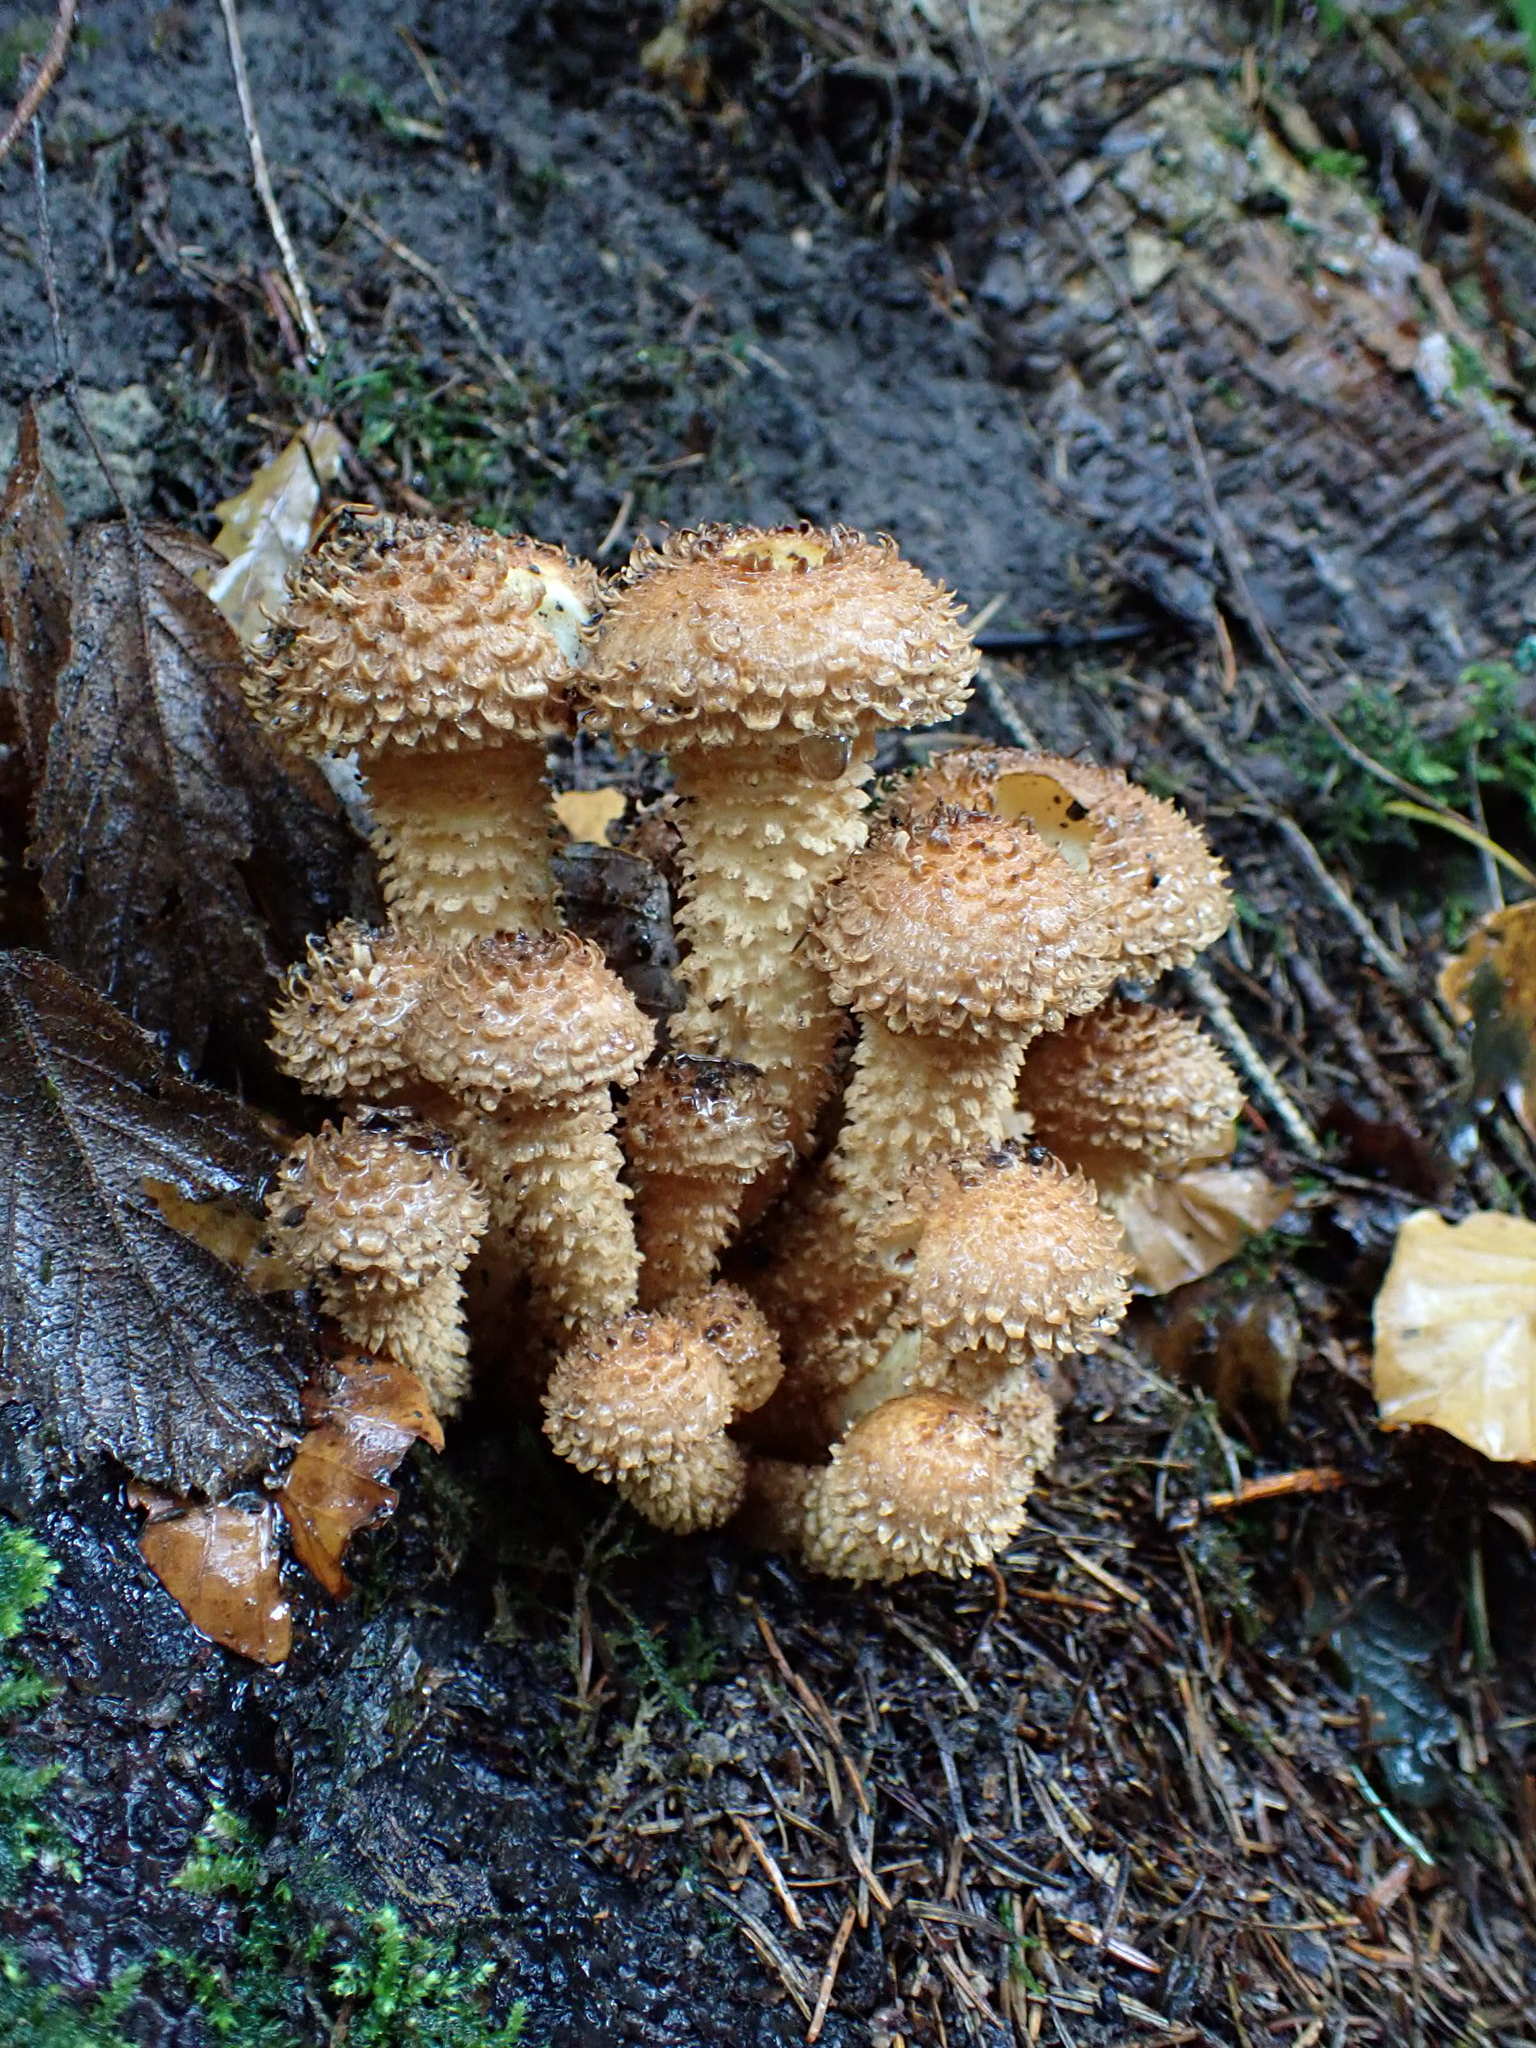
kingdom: Fungi
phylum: Basidiomycota
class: Agaricomycetes
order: Agaricales
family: Strophariaceae
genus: Pholiota
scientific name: Pholiota squarrosa
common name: Shaggy pholiota
